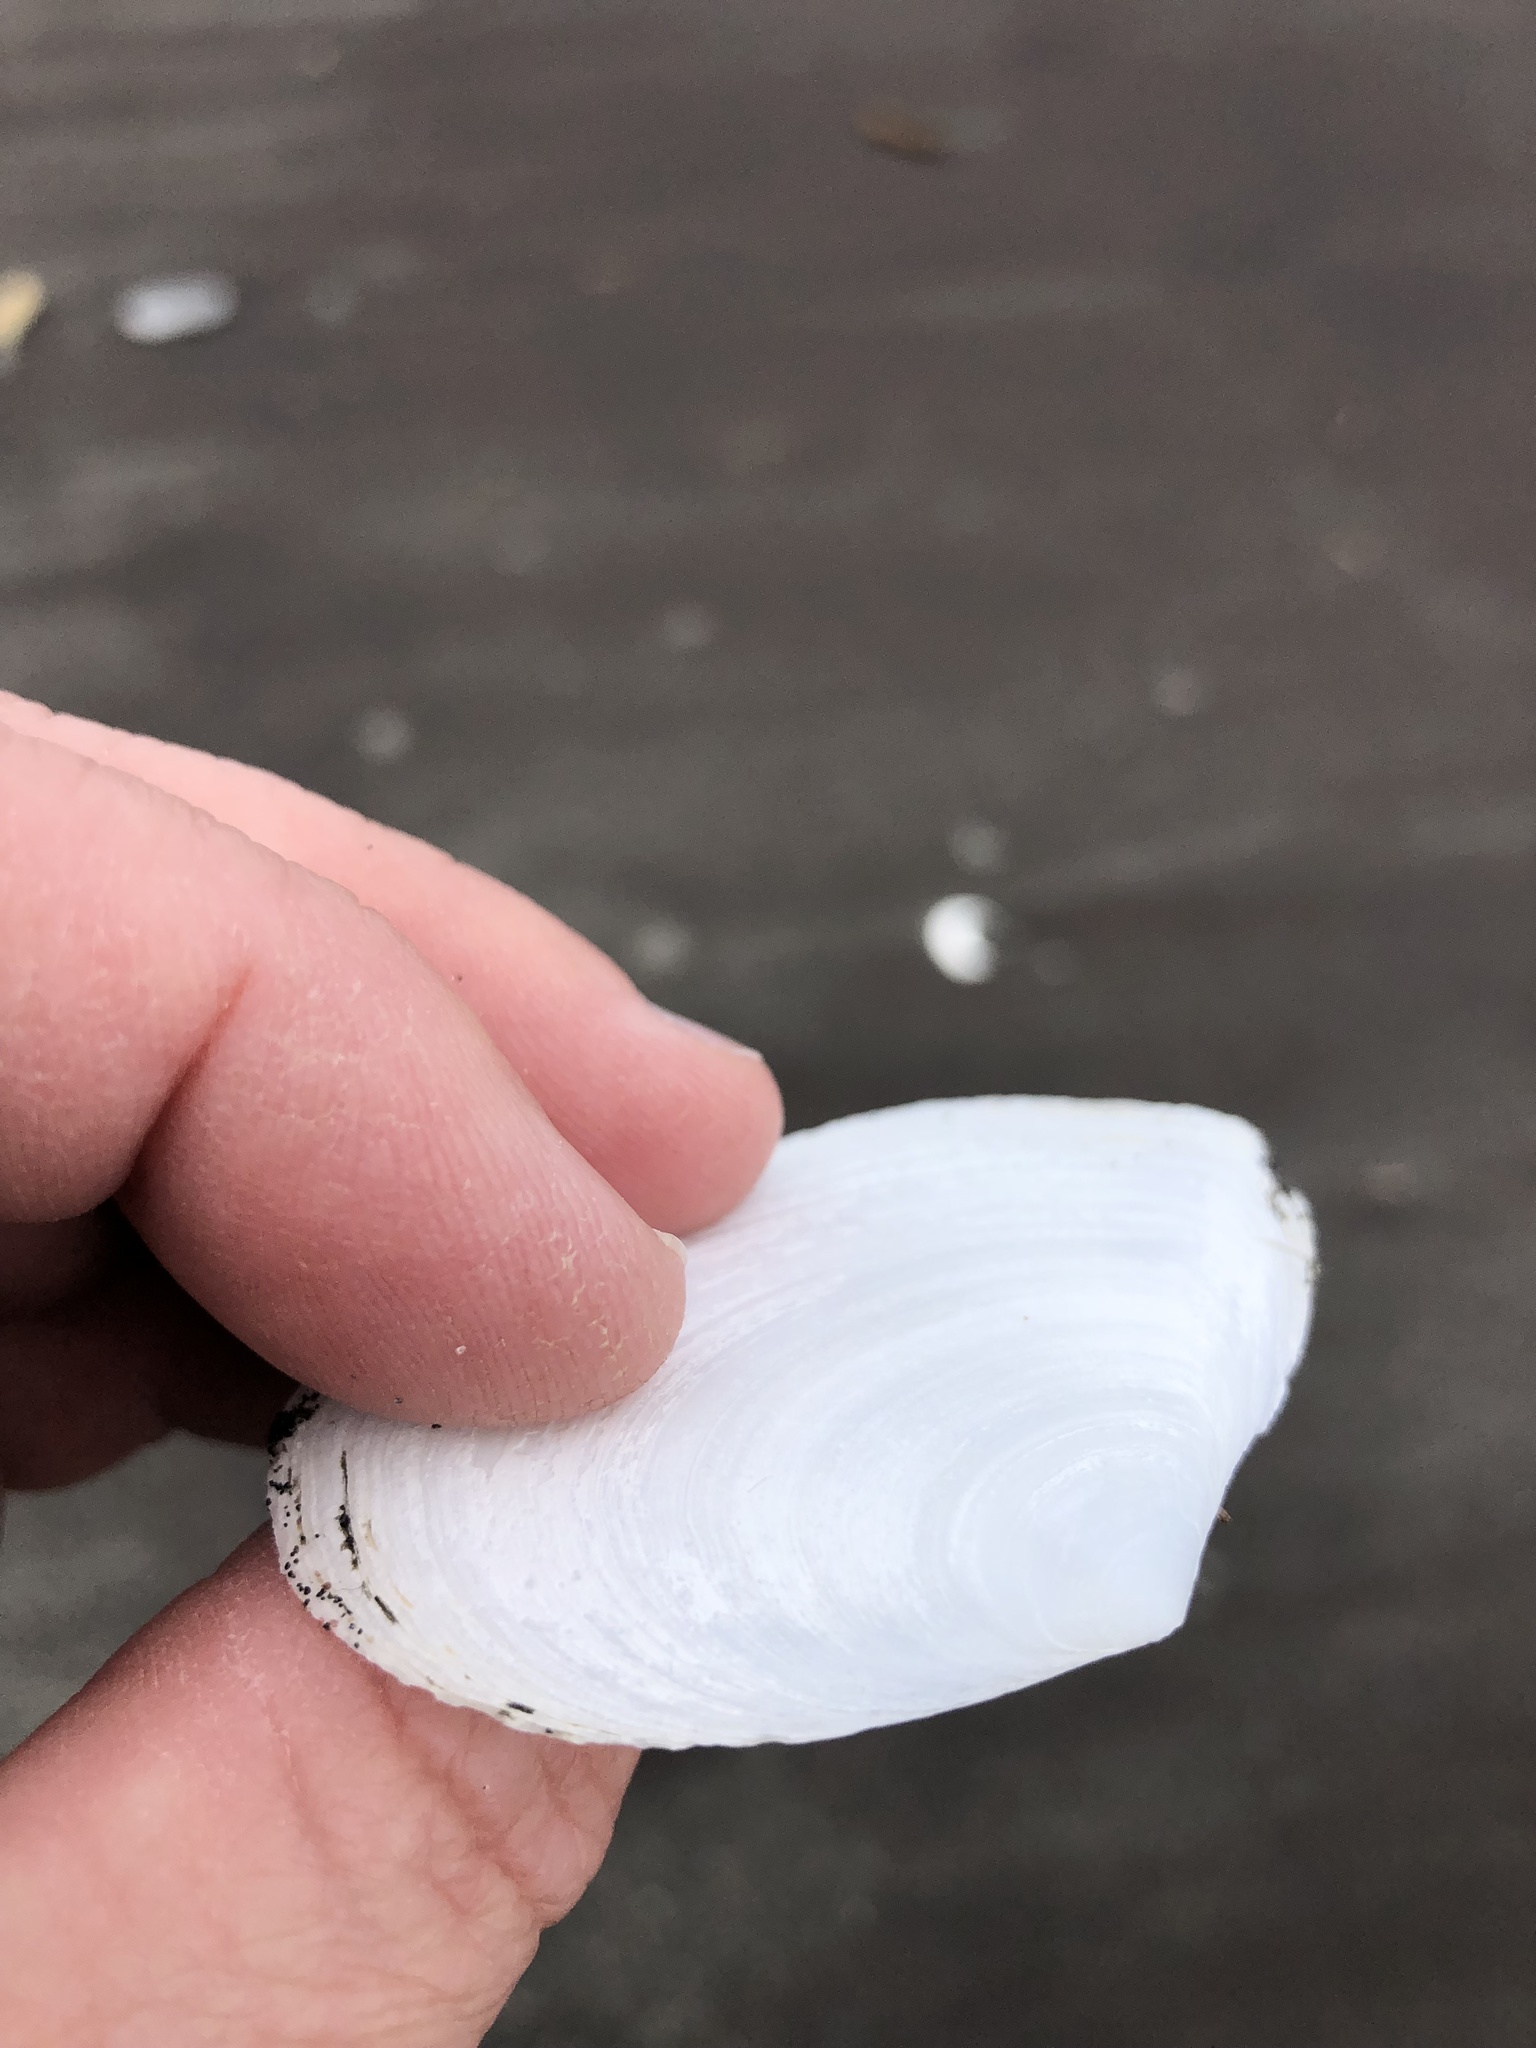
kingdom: Animalia
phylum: Mollusca
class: Bivalvia
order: Cardiida
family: Tellinidae
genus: Bartschicoma
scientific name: Bartschicoma gaimardi
